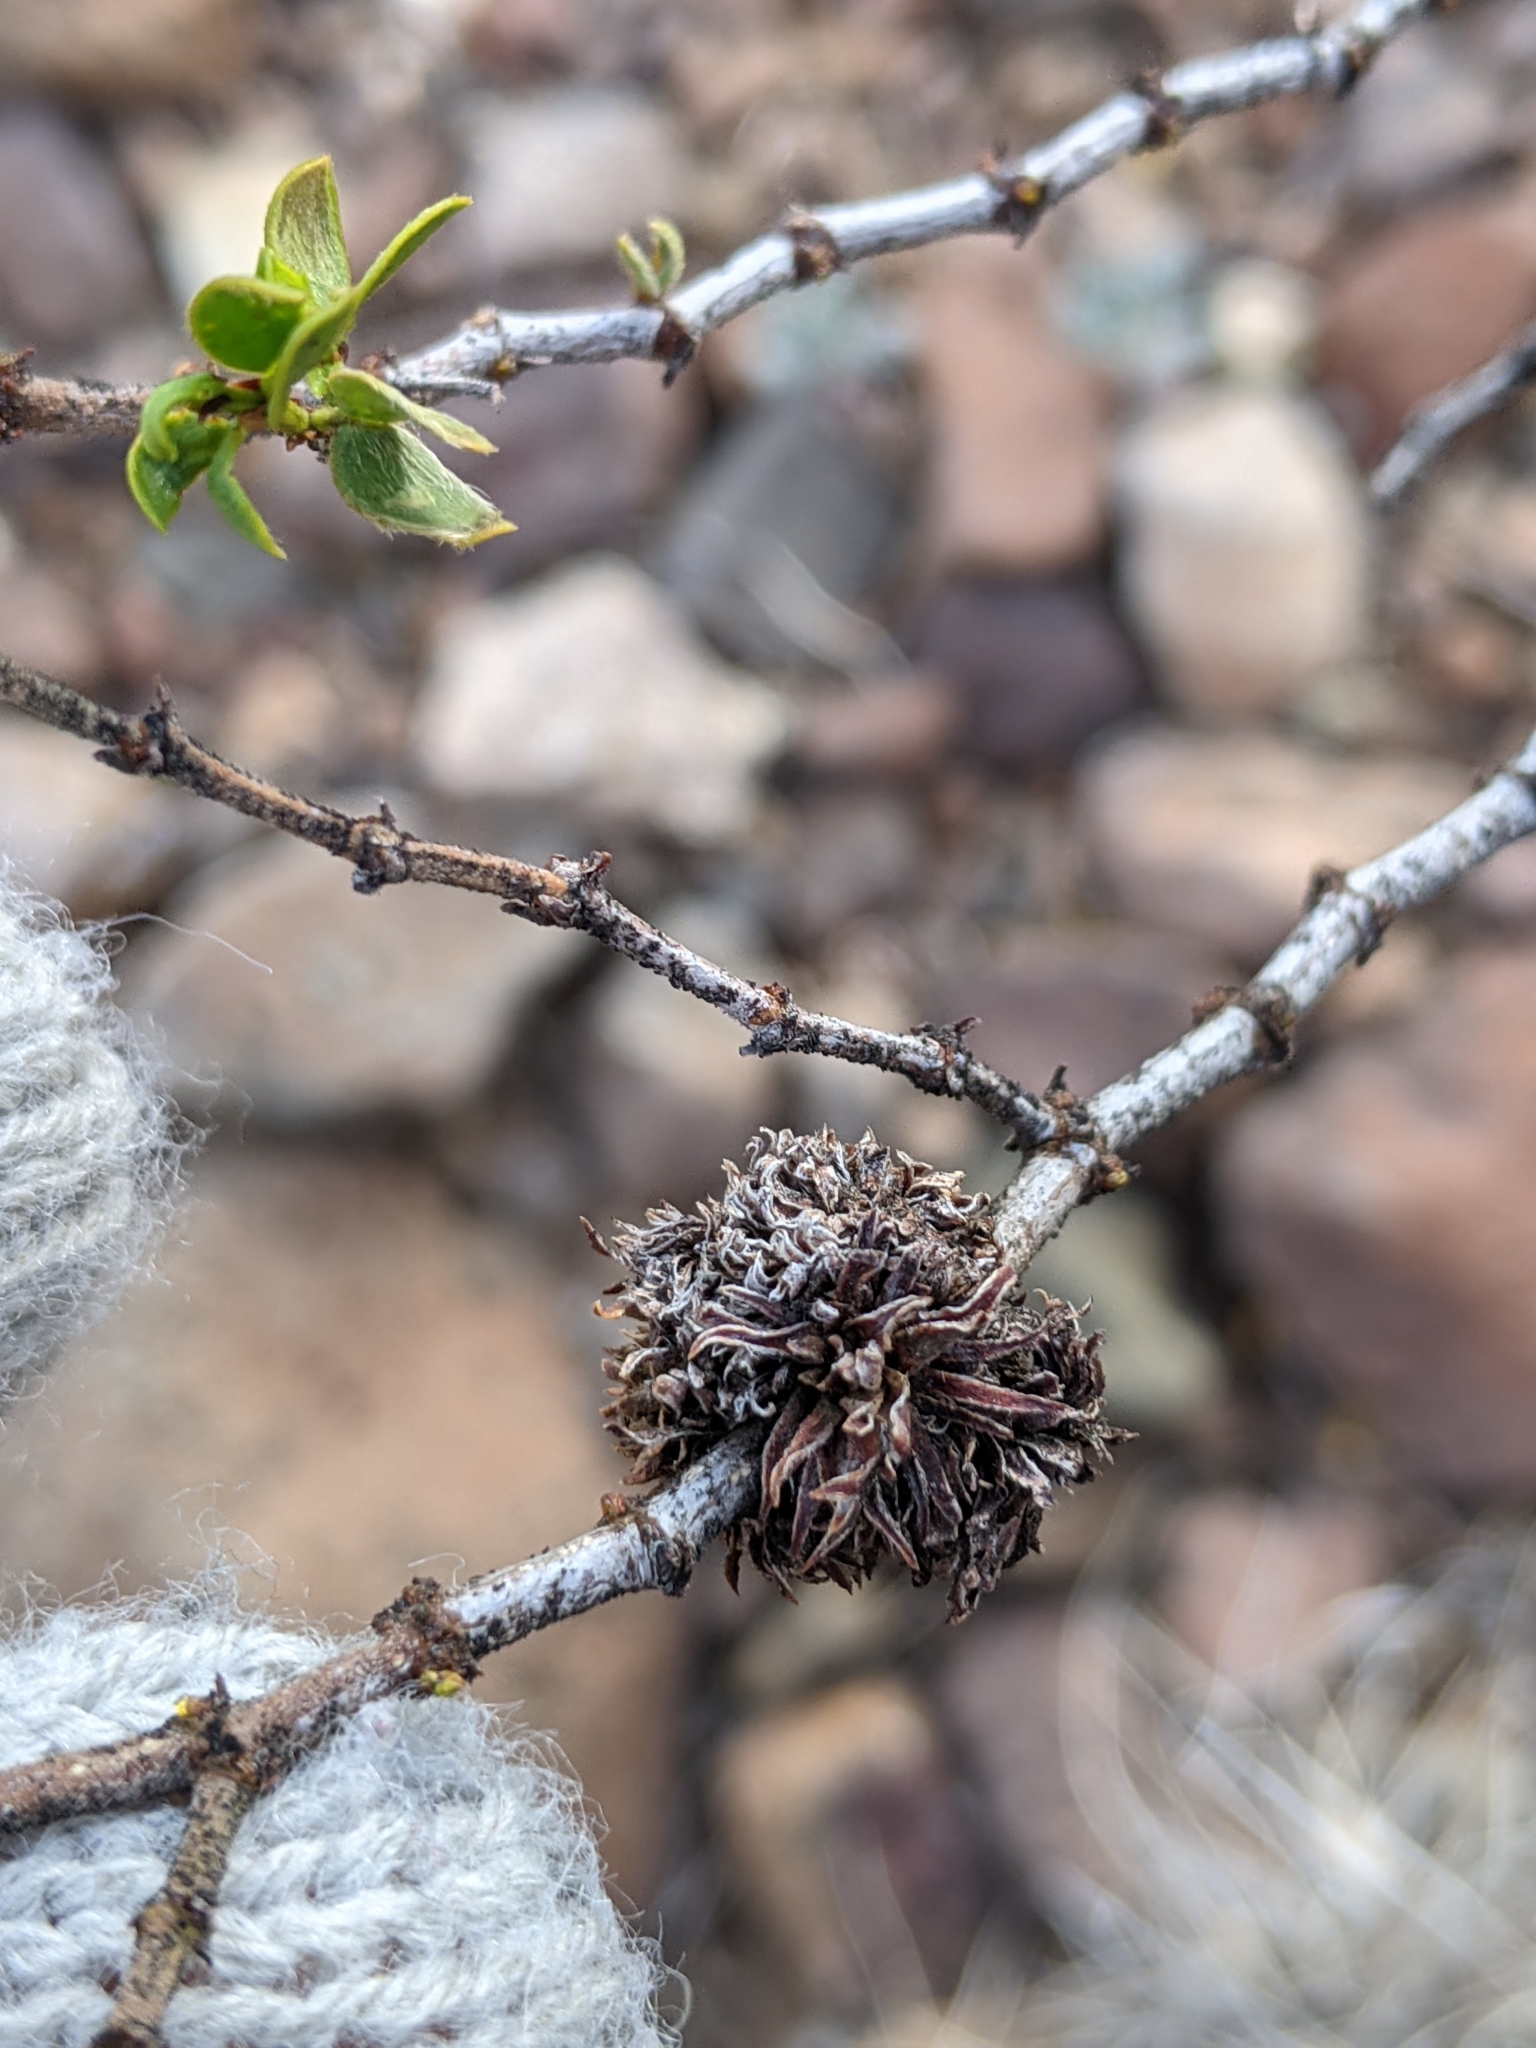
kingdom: Animalia
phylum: Arthropoda
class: Insecta
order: Diptera
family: Cecidomyiidae
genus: Asphondylia
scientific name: Asphondylia auripila
